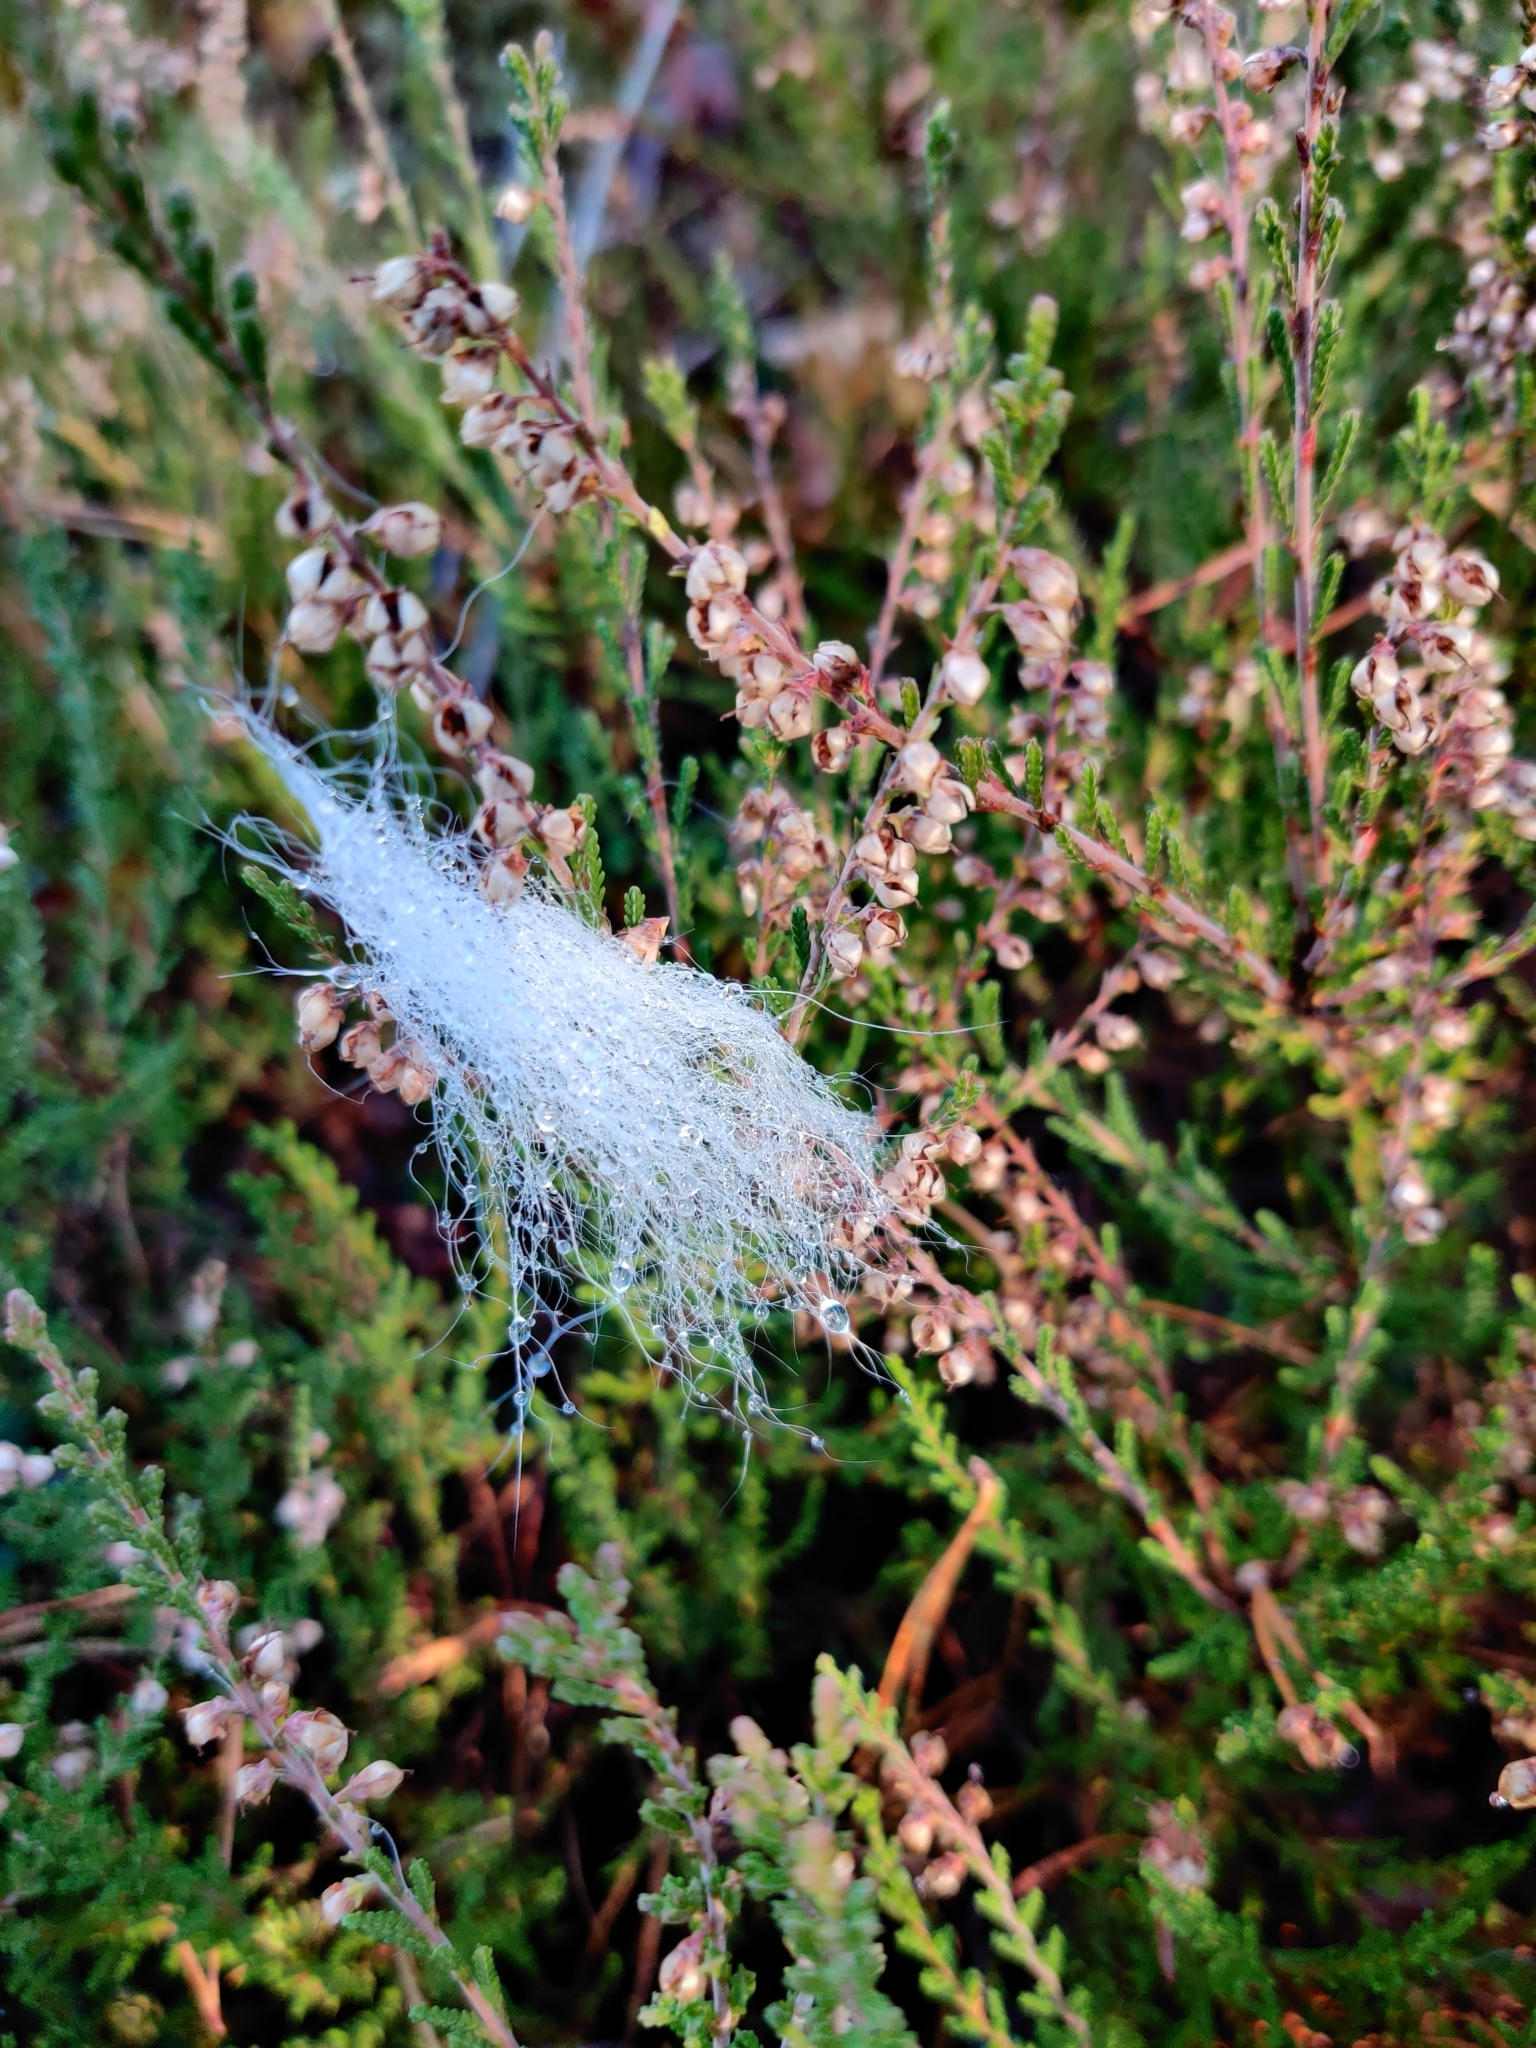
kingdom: Plantae
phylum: Tracheophyta
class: Magnoliopsida
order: Ericales
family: Ericaceae
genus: Calluna
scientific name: Calluna vulgaris
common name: Heather
